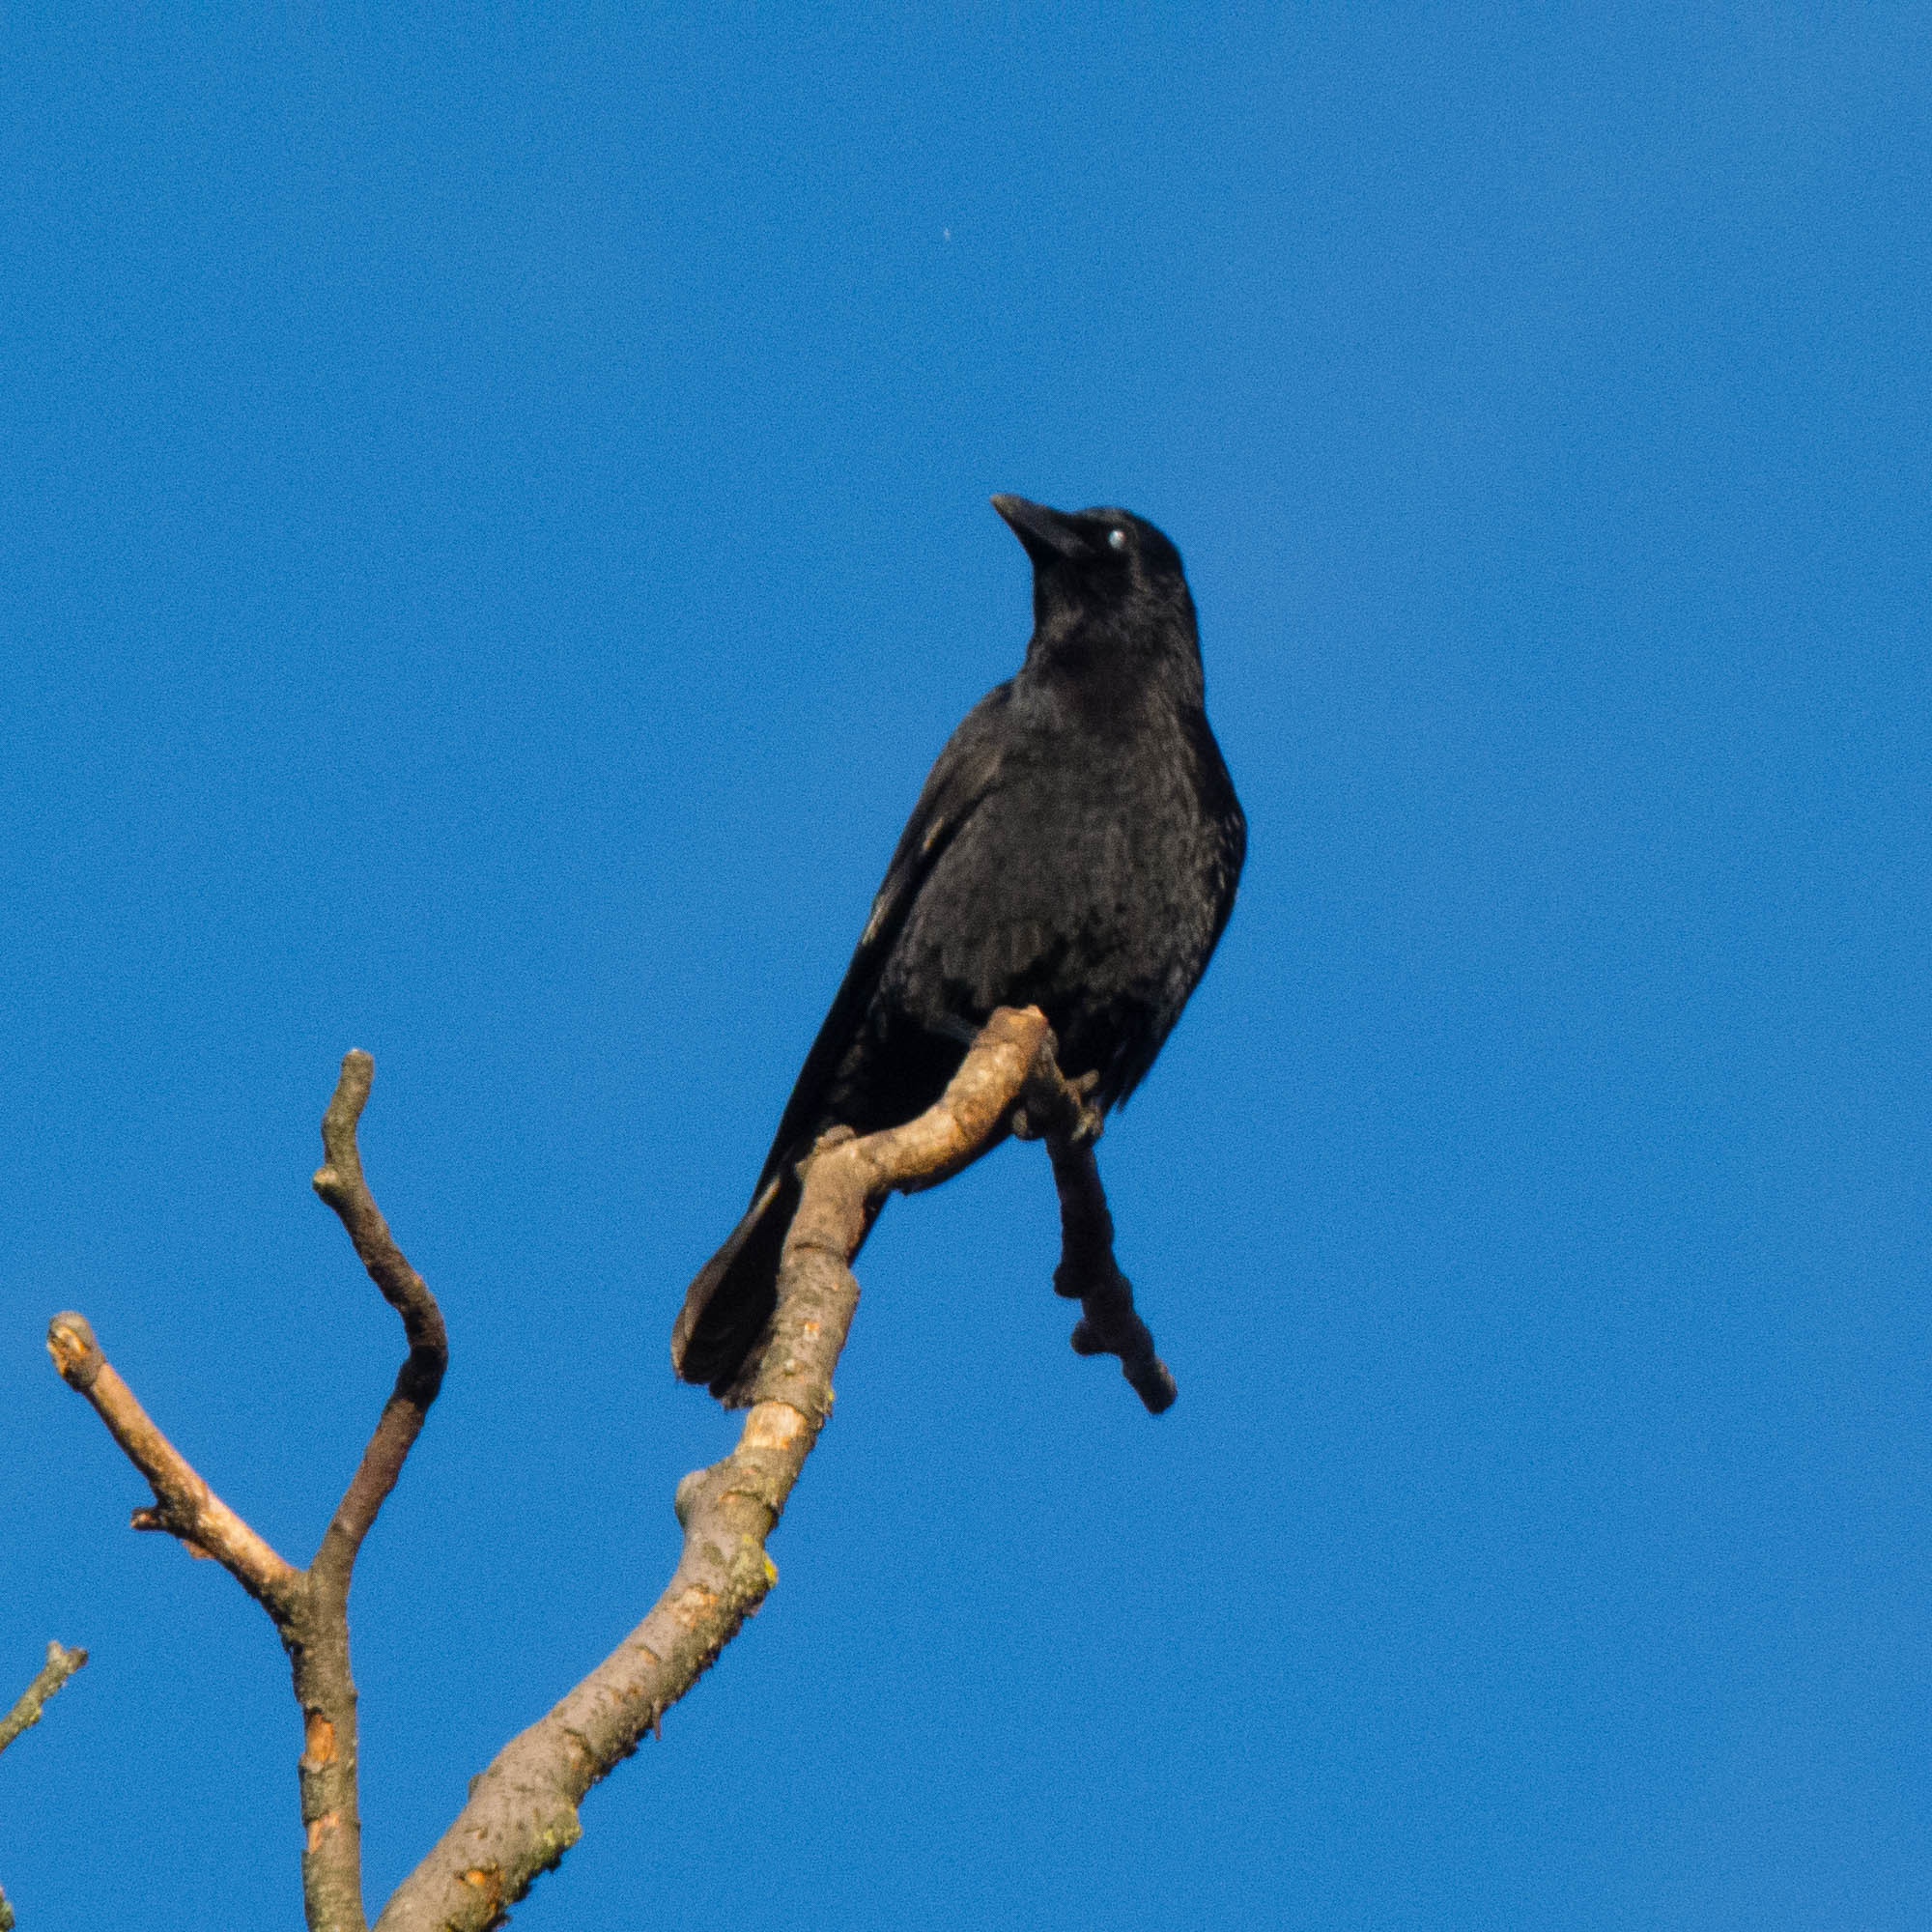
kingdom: Animalia
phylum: Chordata
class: Aves
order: Passeriformes
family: Corvidae
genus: Corvus
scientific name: Corvus corone
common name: Carrion crow
